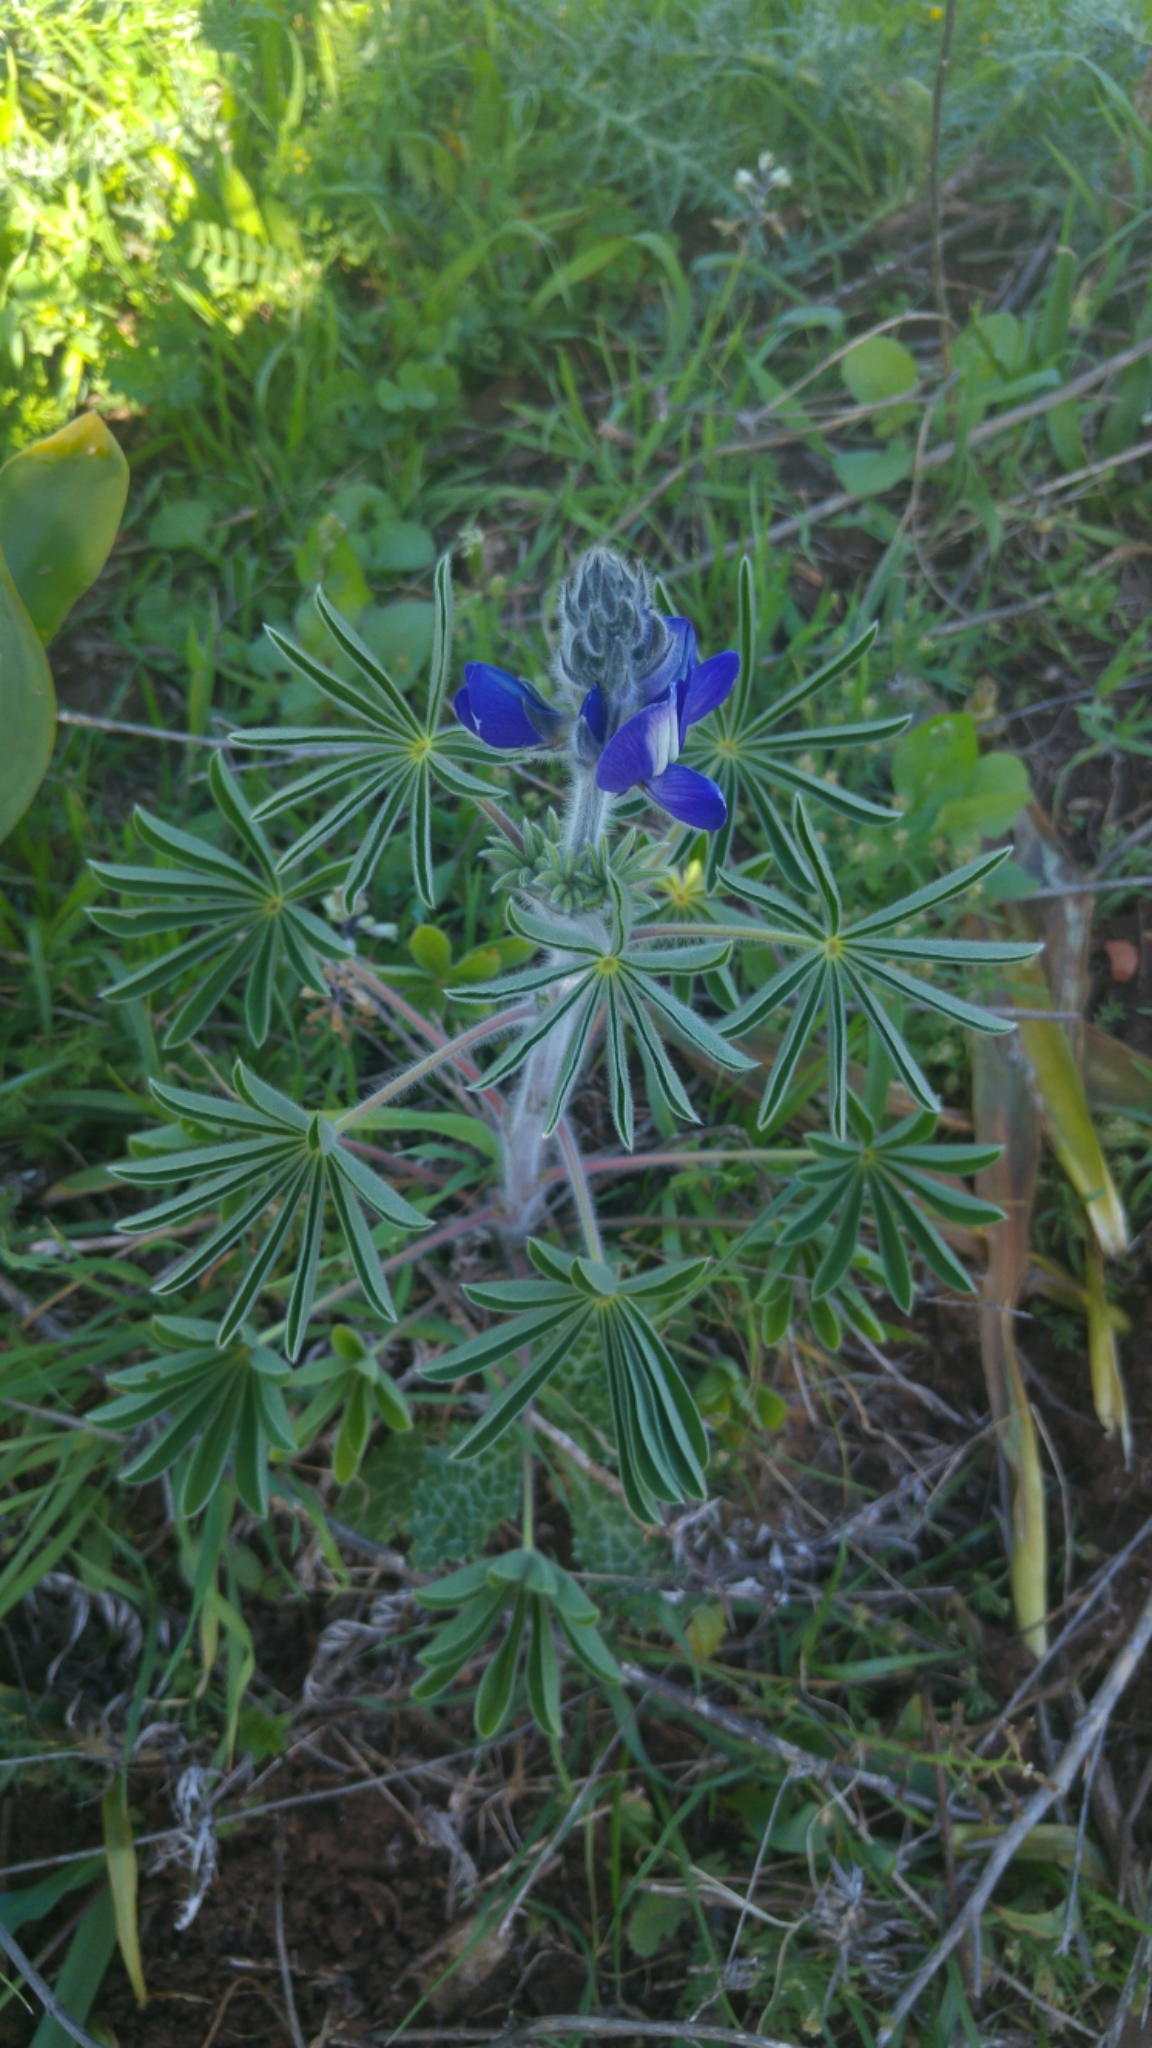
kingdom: Plantae
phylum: Tracheophyta
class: Magnoliopsida
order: Fabales
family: Fabaceae
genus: Lupinus
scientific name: Lupinus pilosus
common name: Blue lupine
